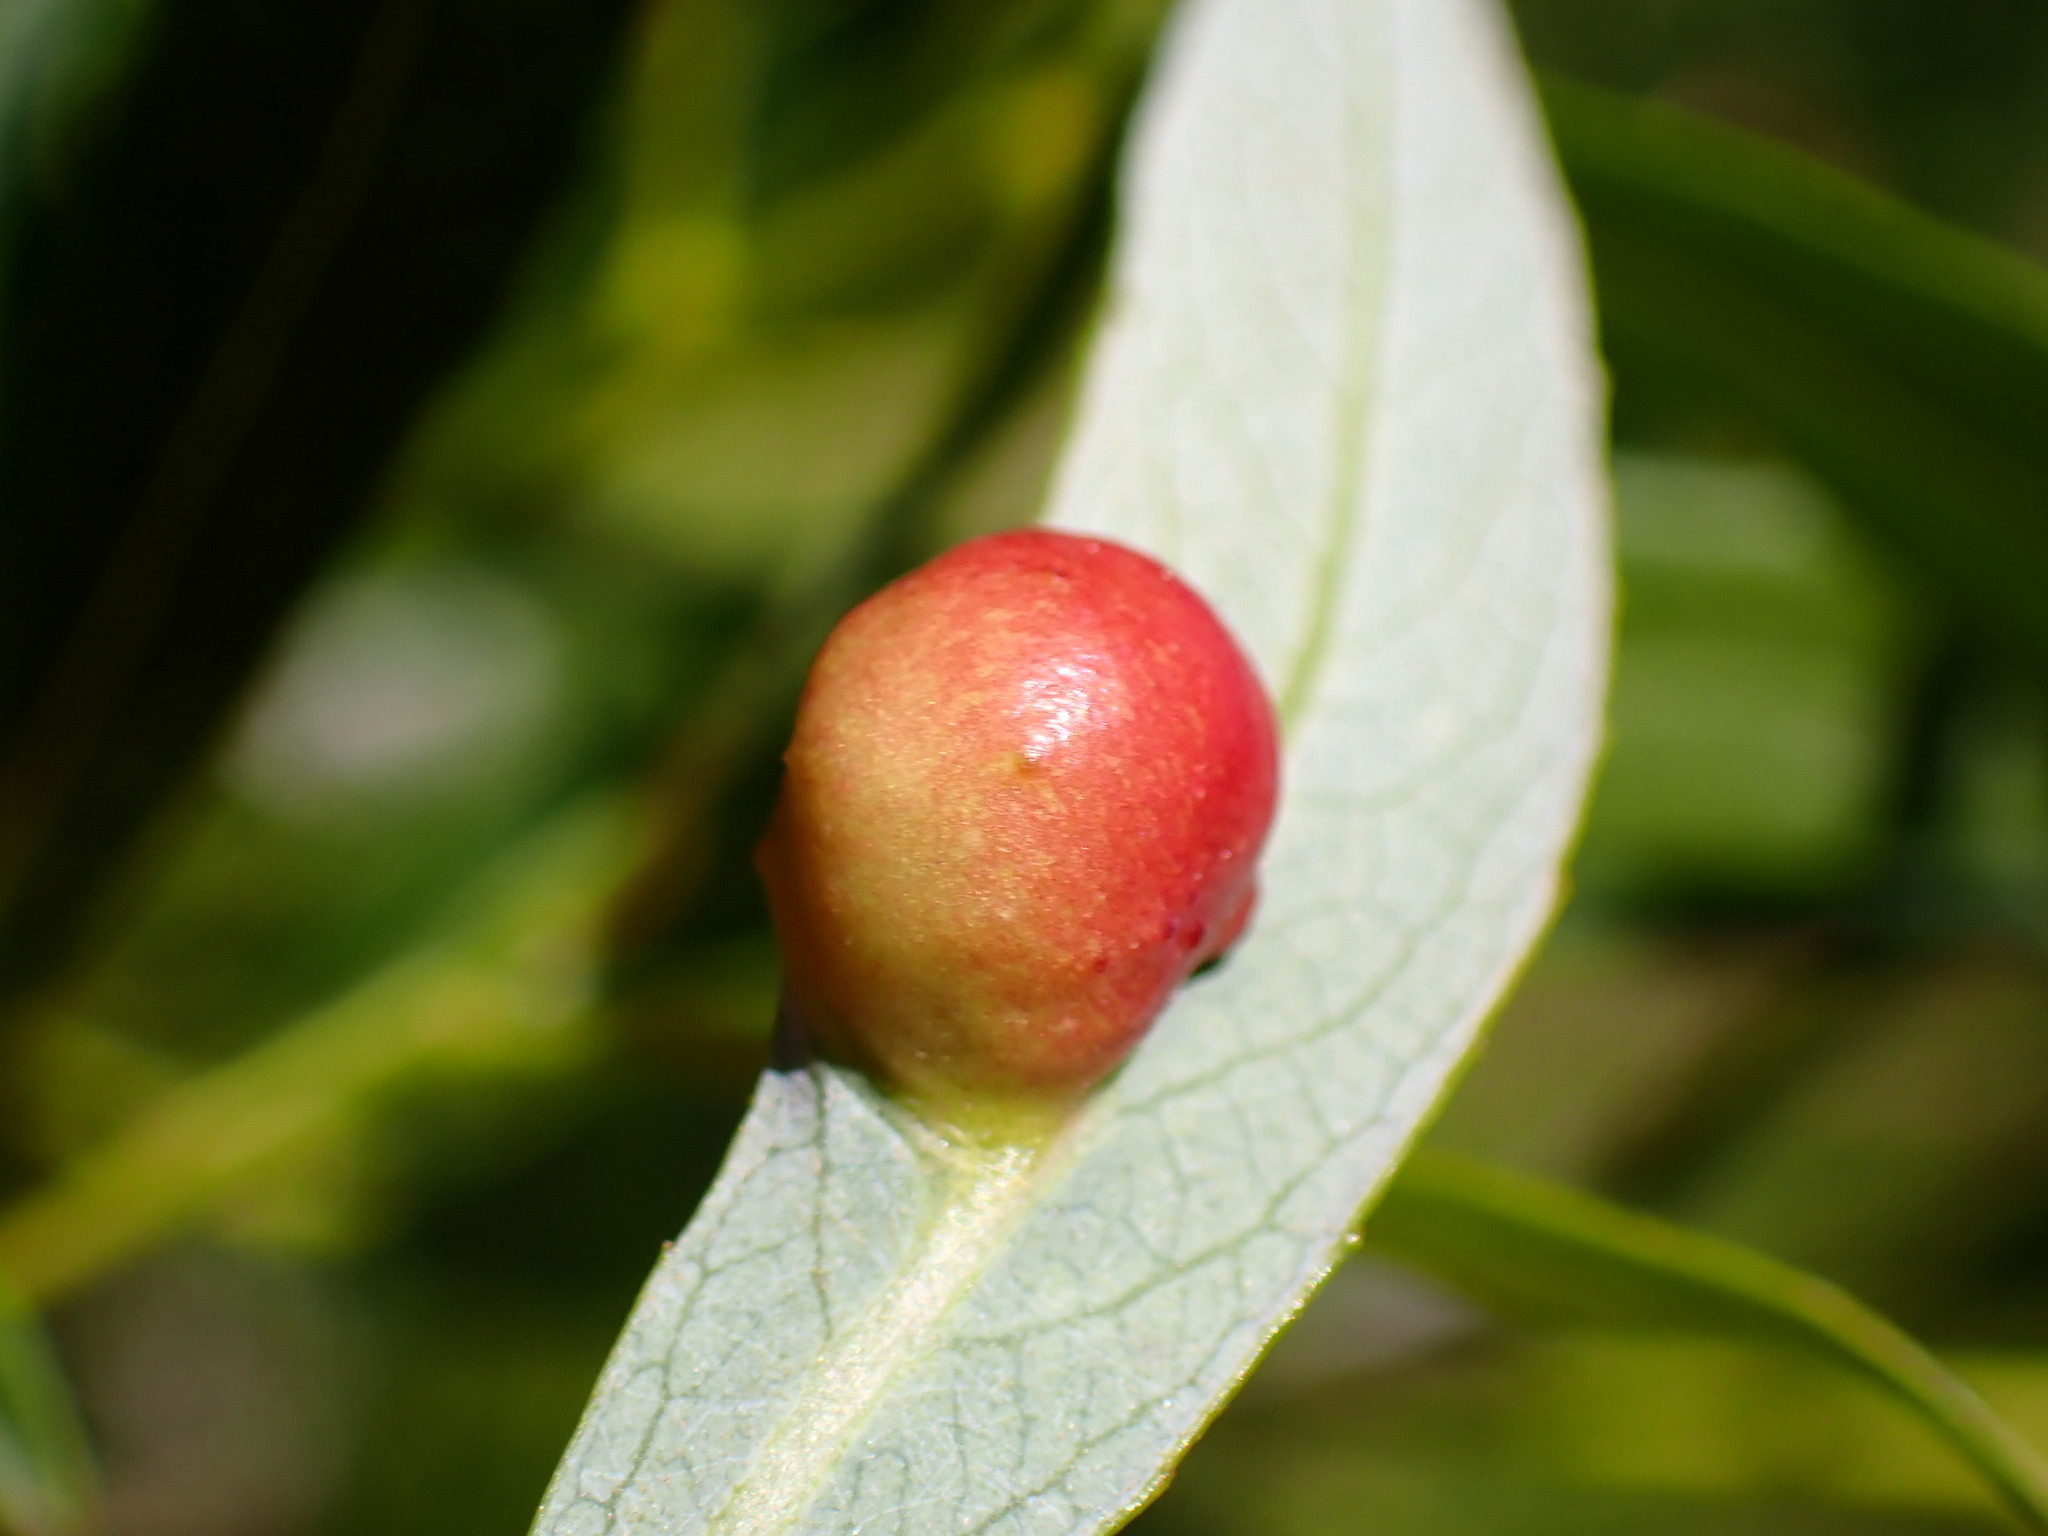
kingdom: Animalia
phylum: Arthropoda
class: Insecta
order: Hymenoptera
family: Tenthredinidae
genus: Euura
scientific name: Euura
